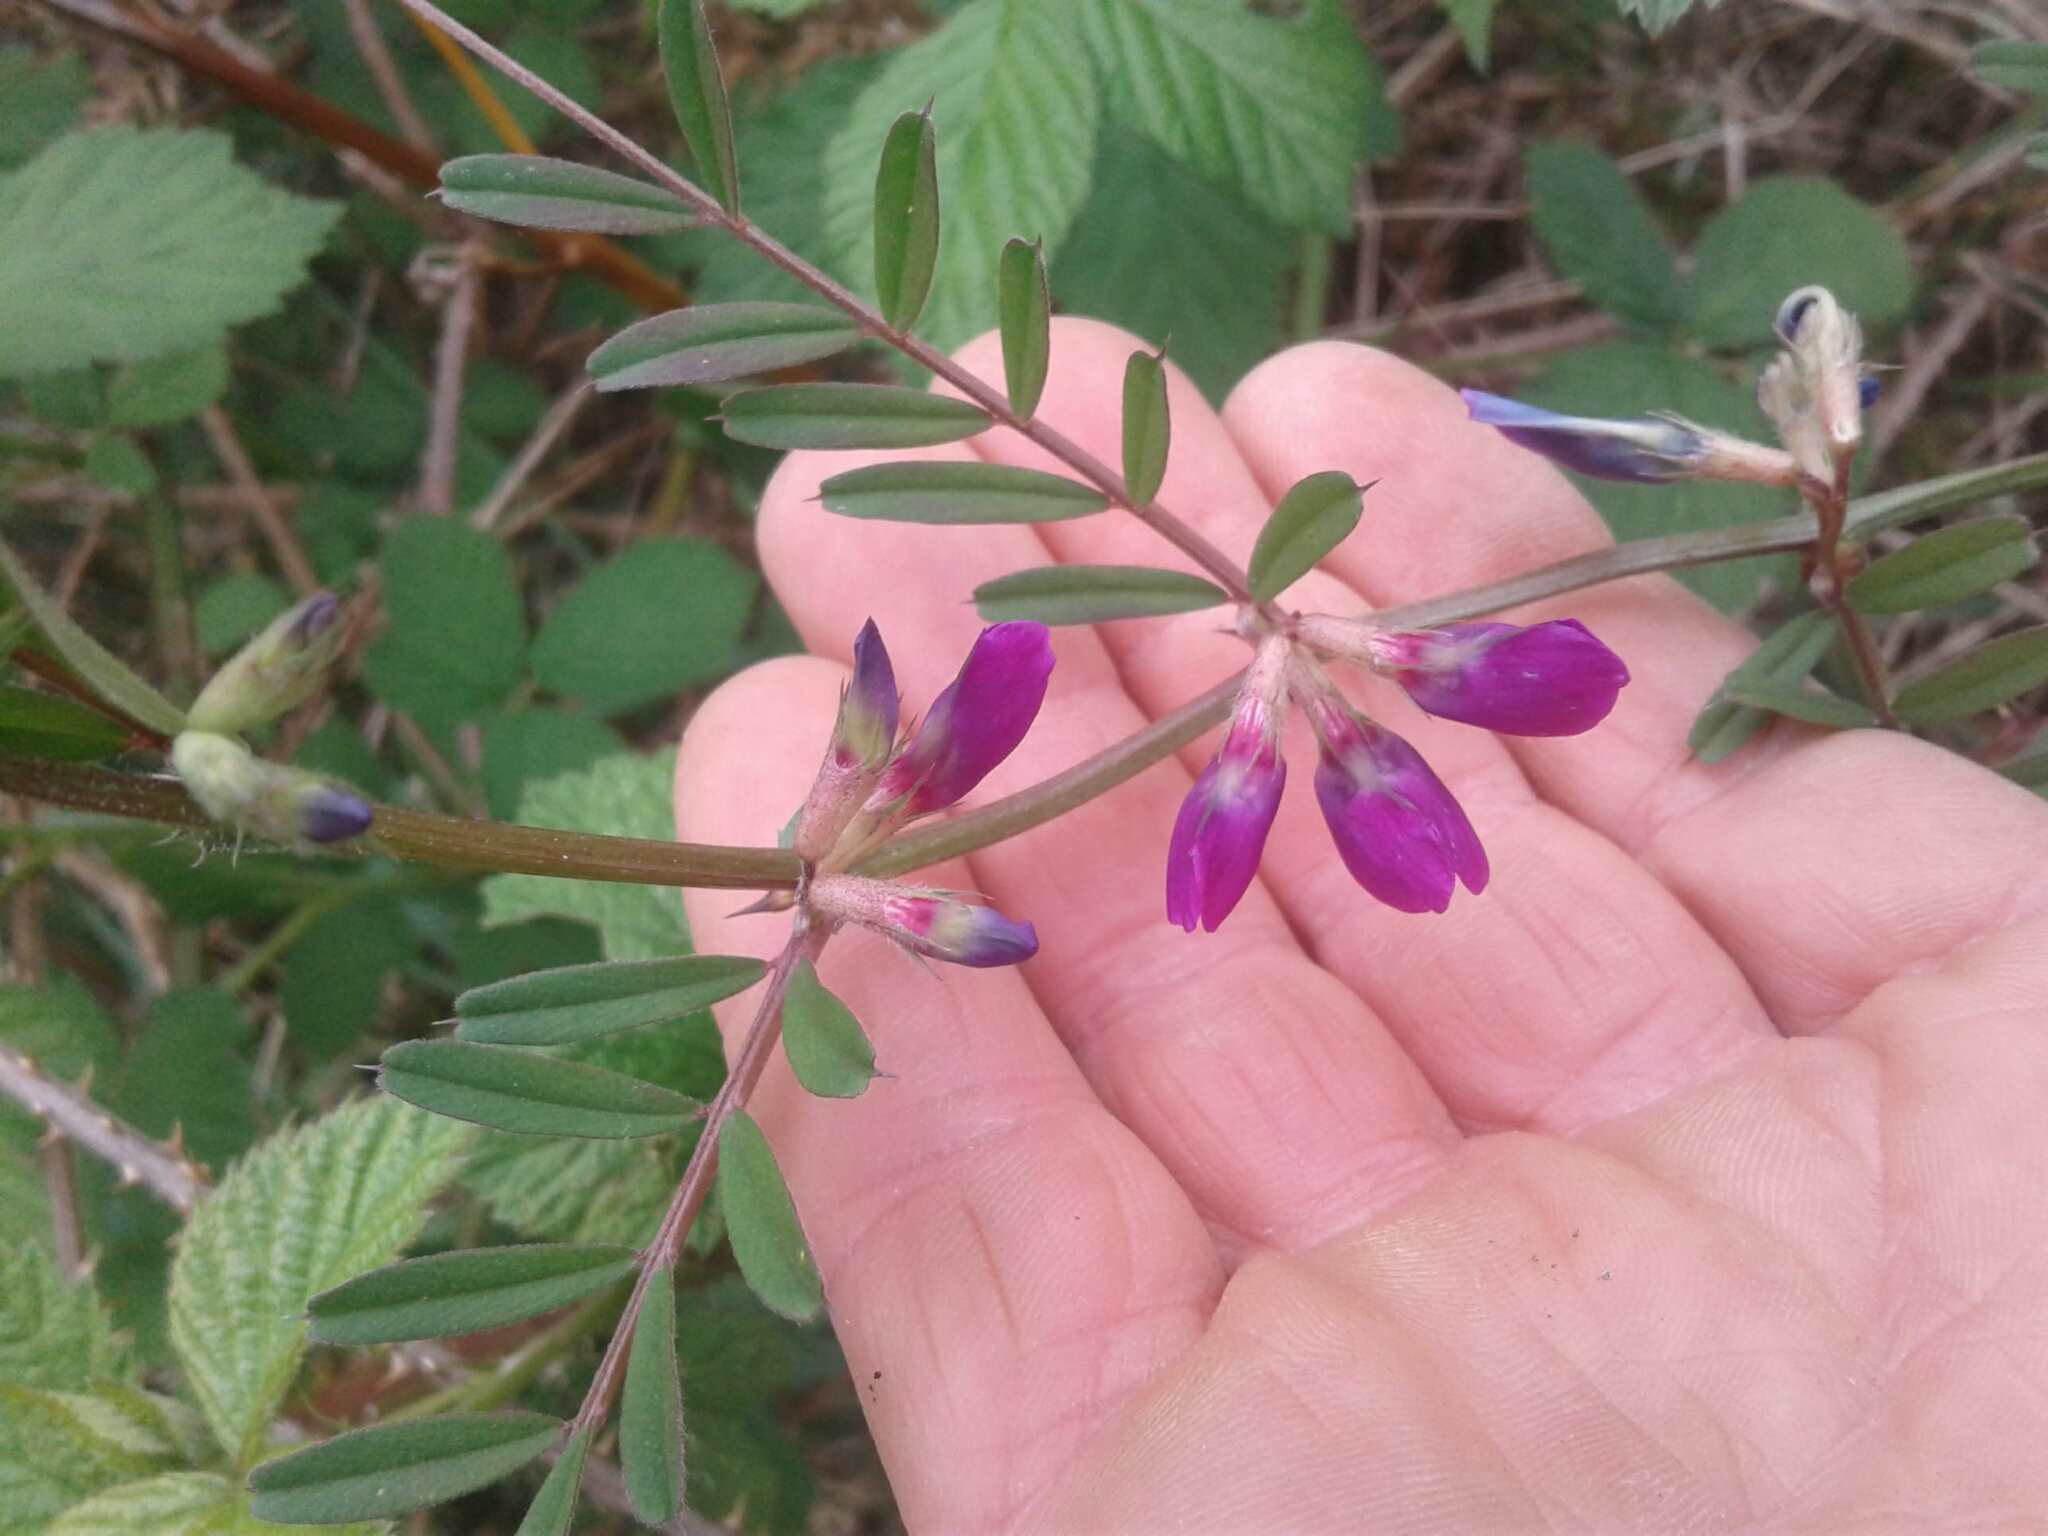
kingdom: Plantae
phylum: Tracheophyta
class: Magnoliopsida
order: Fabales
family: Fabaceae
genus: Vicia
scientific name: Vicia sativa
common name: Garden vetch
